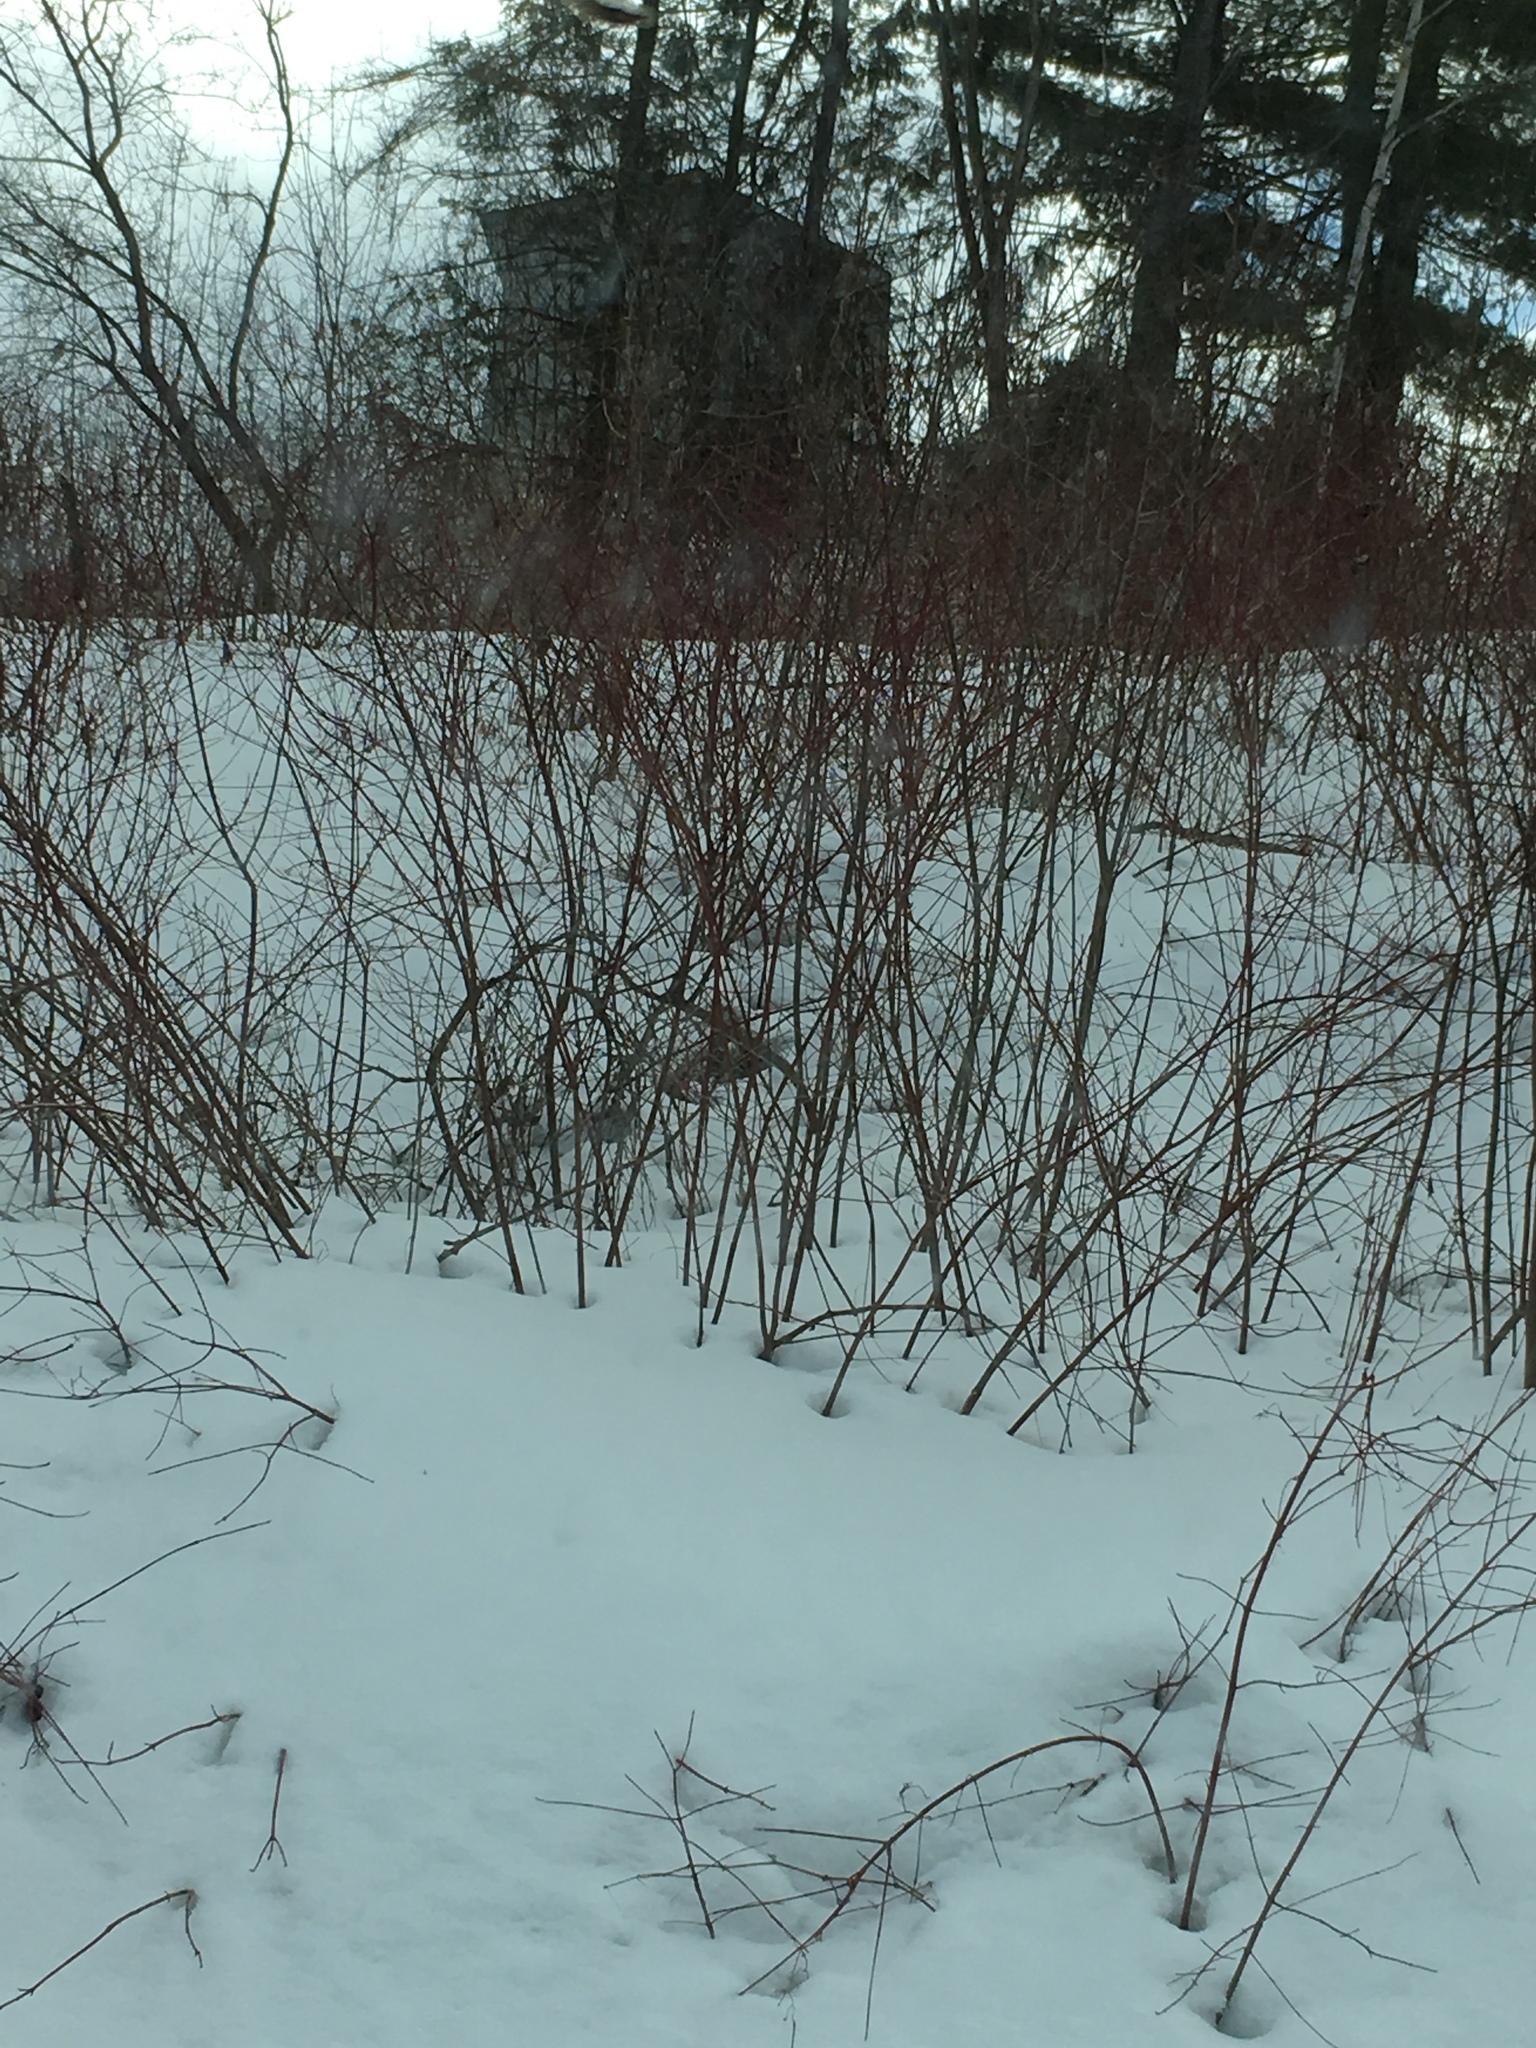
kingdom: Plantae
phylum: Tracheophyta
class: Magnoliopsida
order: Cornales
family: Cornaceae
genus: Cornus
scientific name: Cornus sericea
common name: Red-osier dogwood
